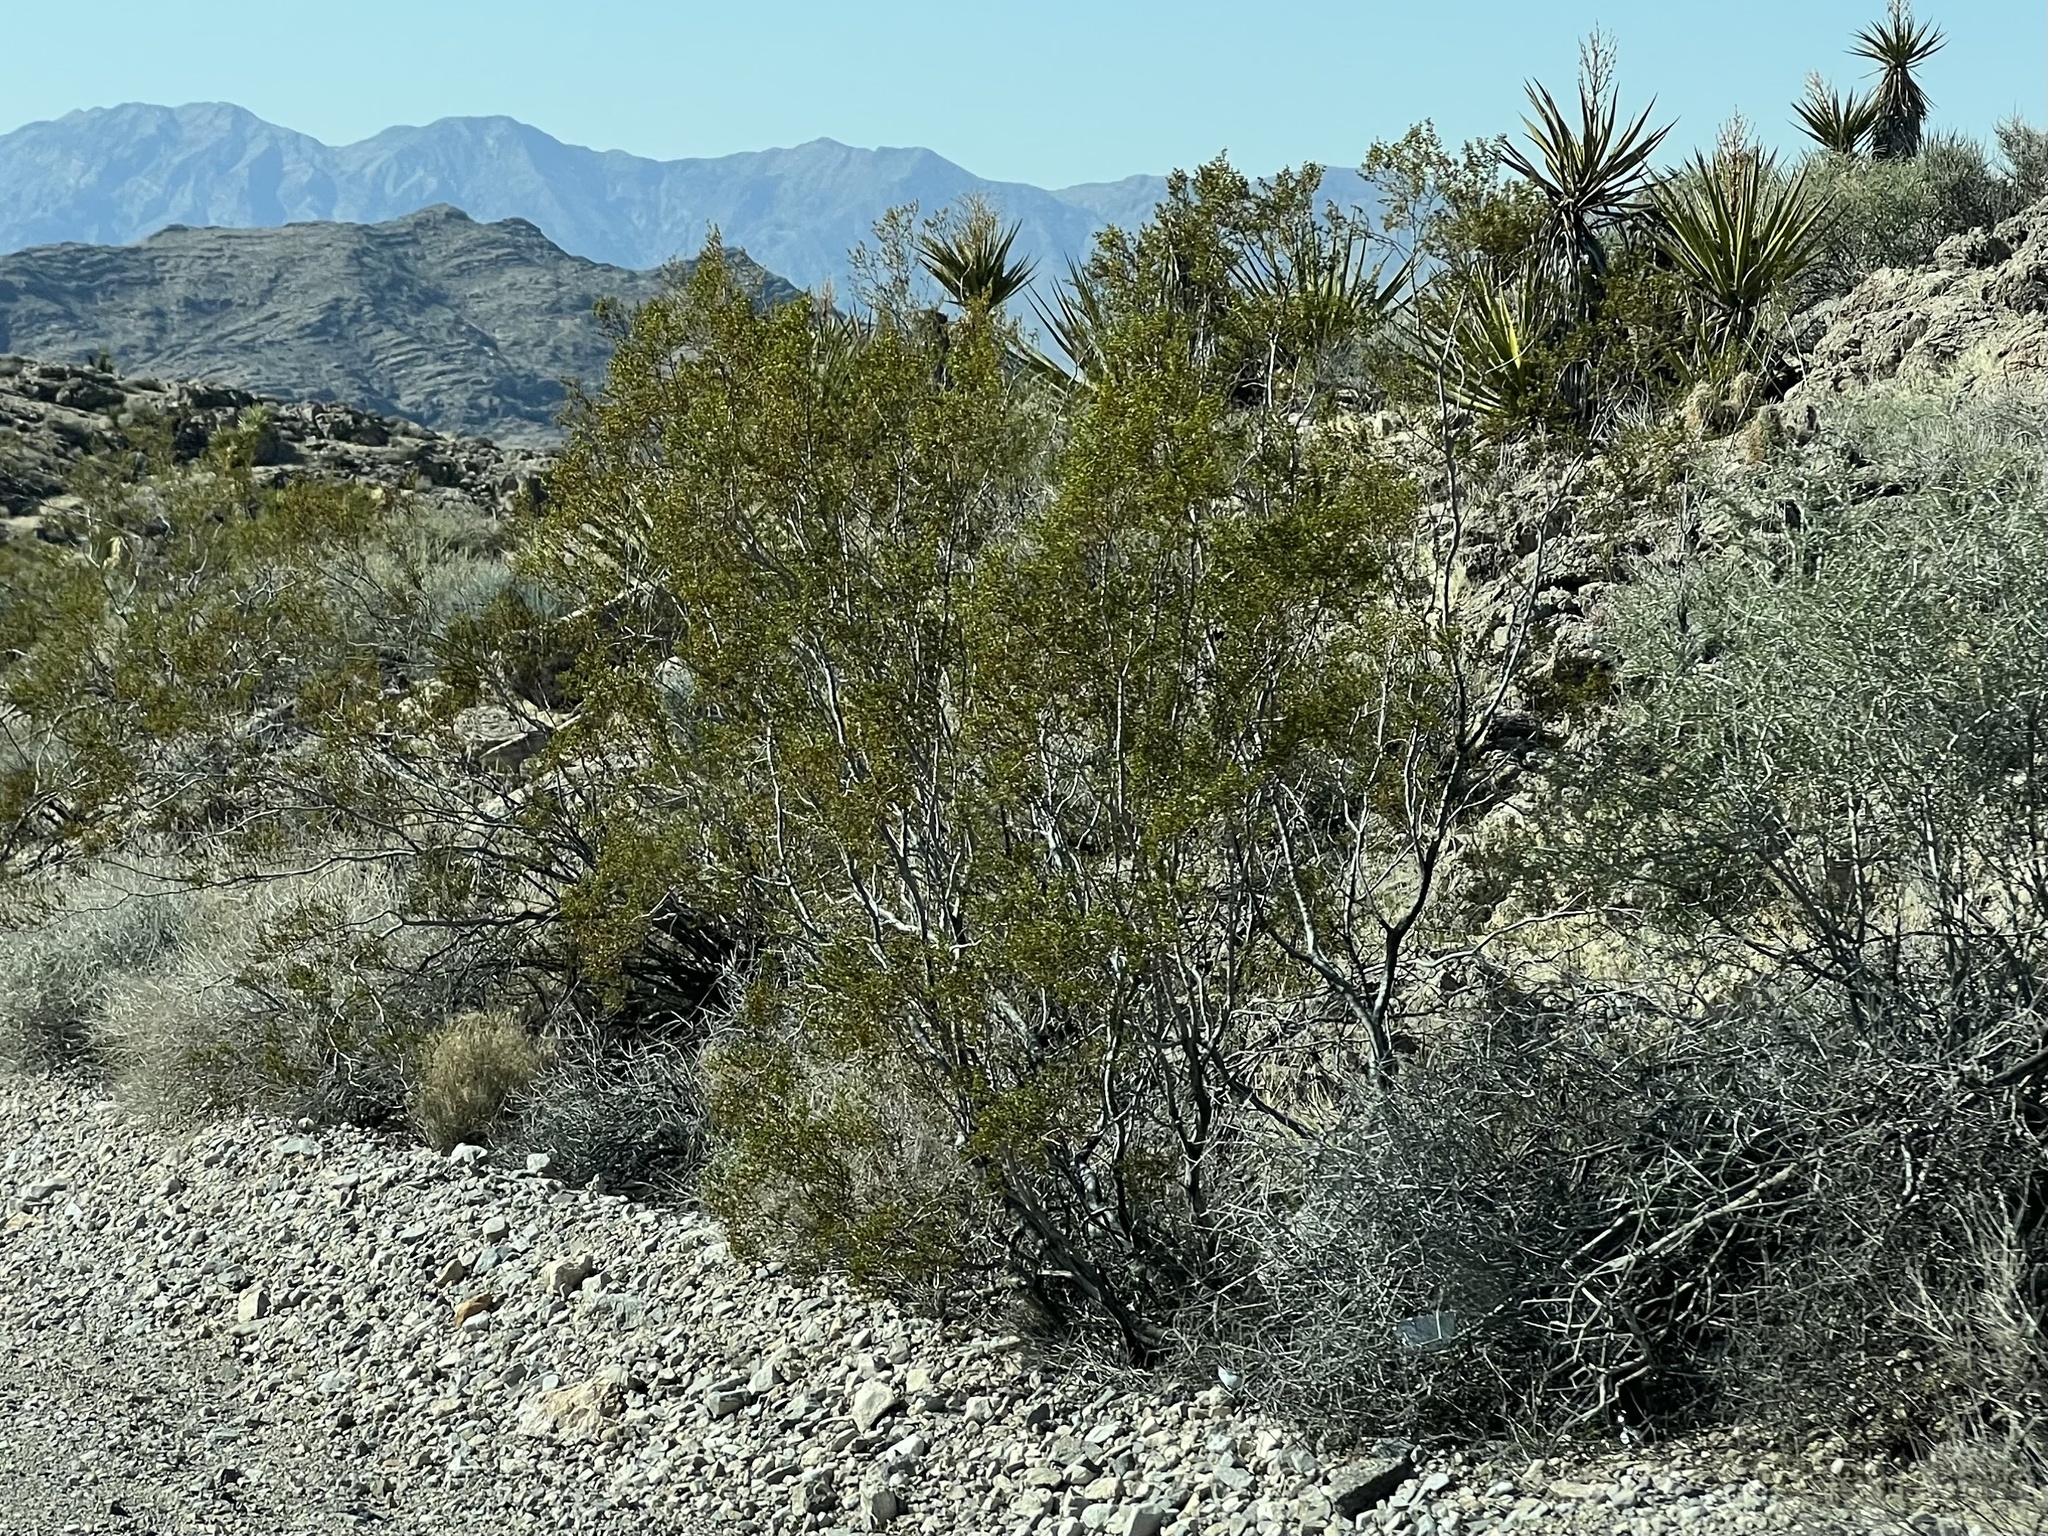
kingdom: Plantae
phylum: Tracheophyta
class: Magnoliopsida
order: Zygophyllales
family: Zygophyllaceae
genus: Larrea
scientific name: Larrea tridentata
